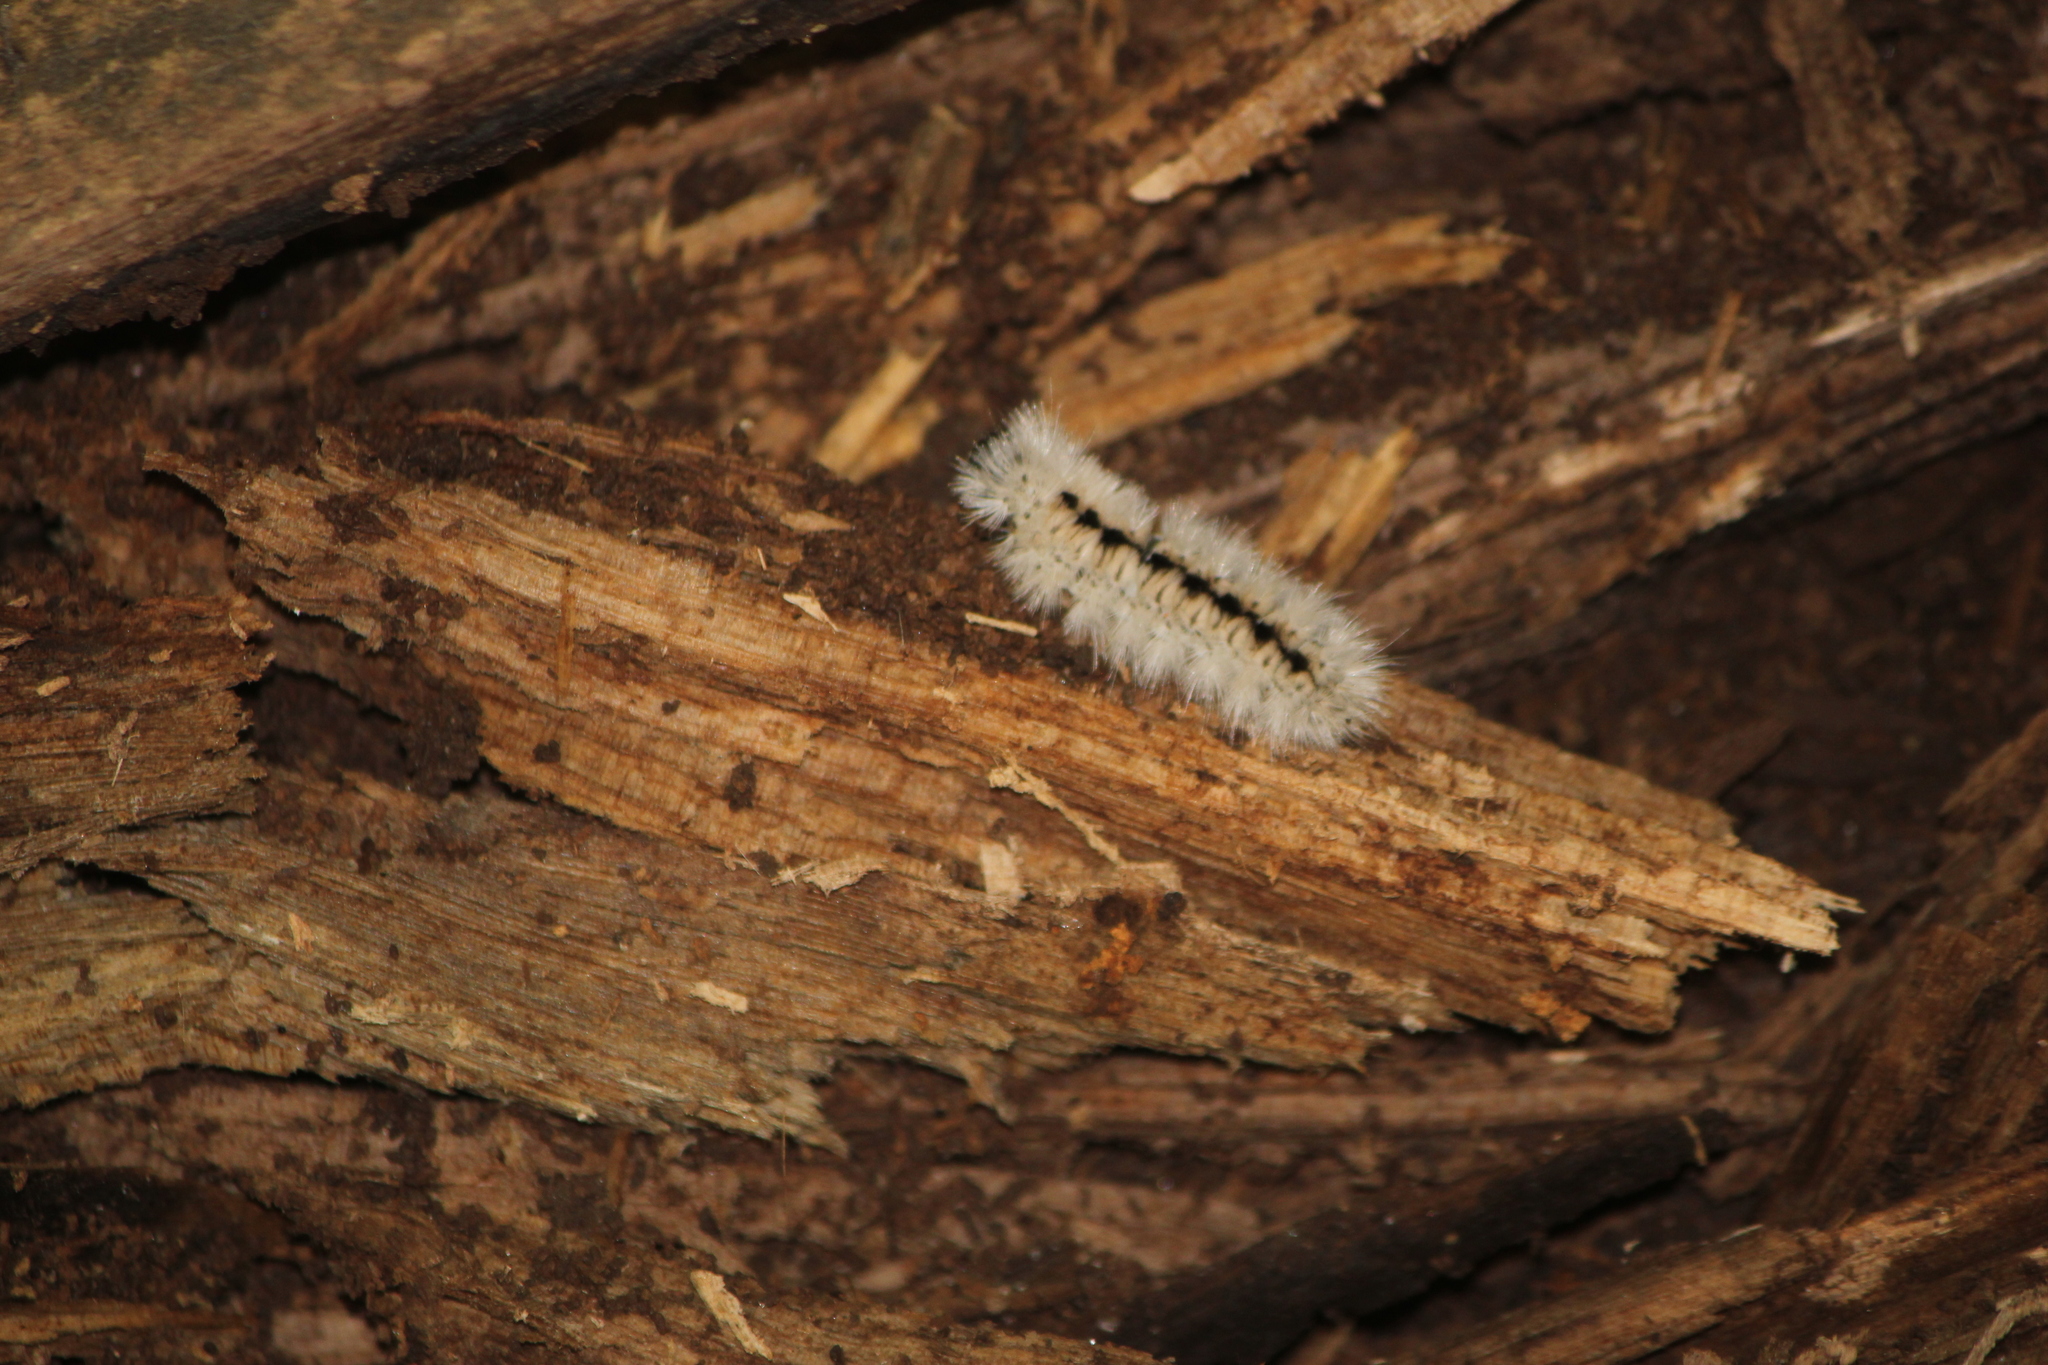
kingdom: Animalia
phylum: Arthropoda
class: Insecta
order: Lepidoptera
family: Erebidae
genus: Lophocampa
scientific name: Lophocampa caryae
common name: Hickory tussock moth
